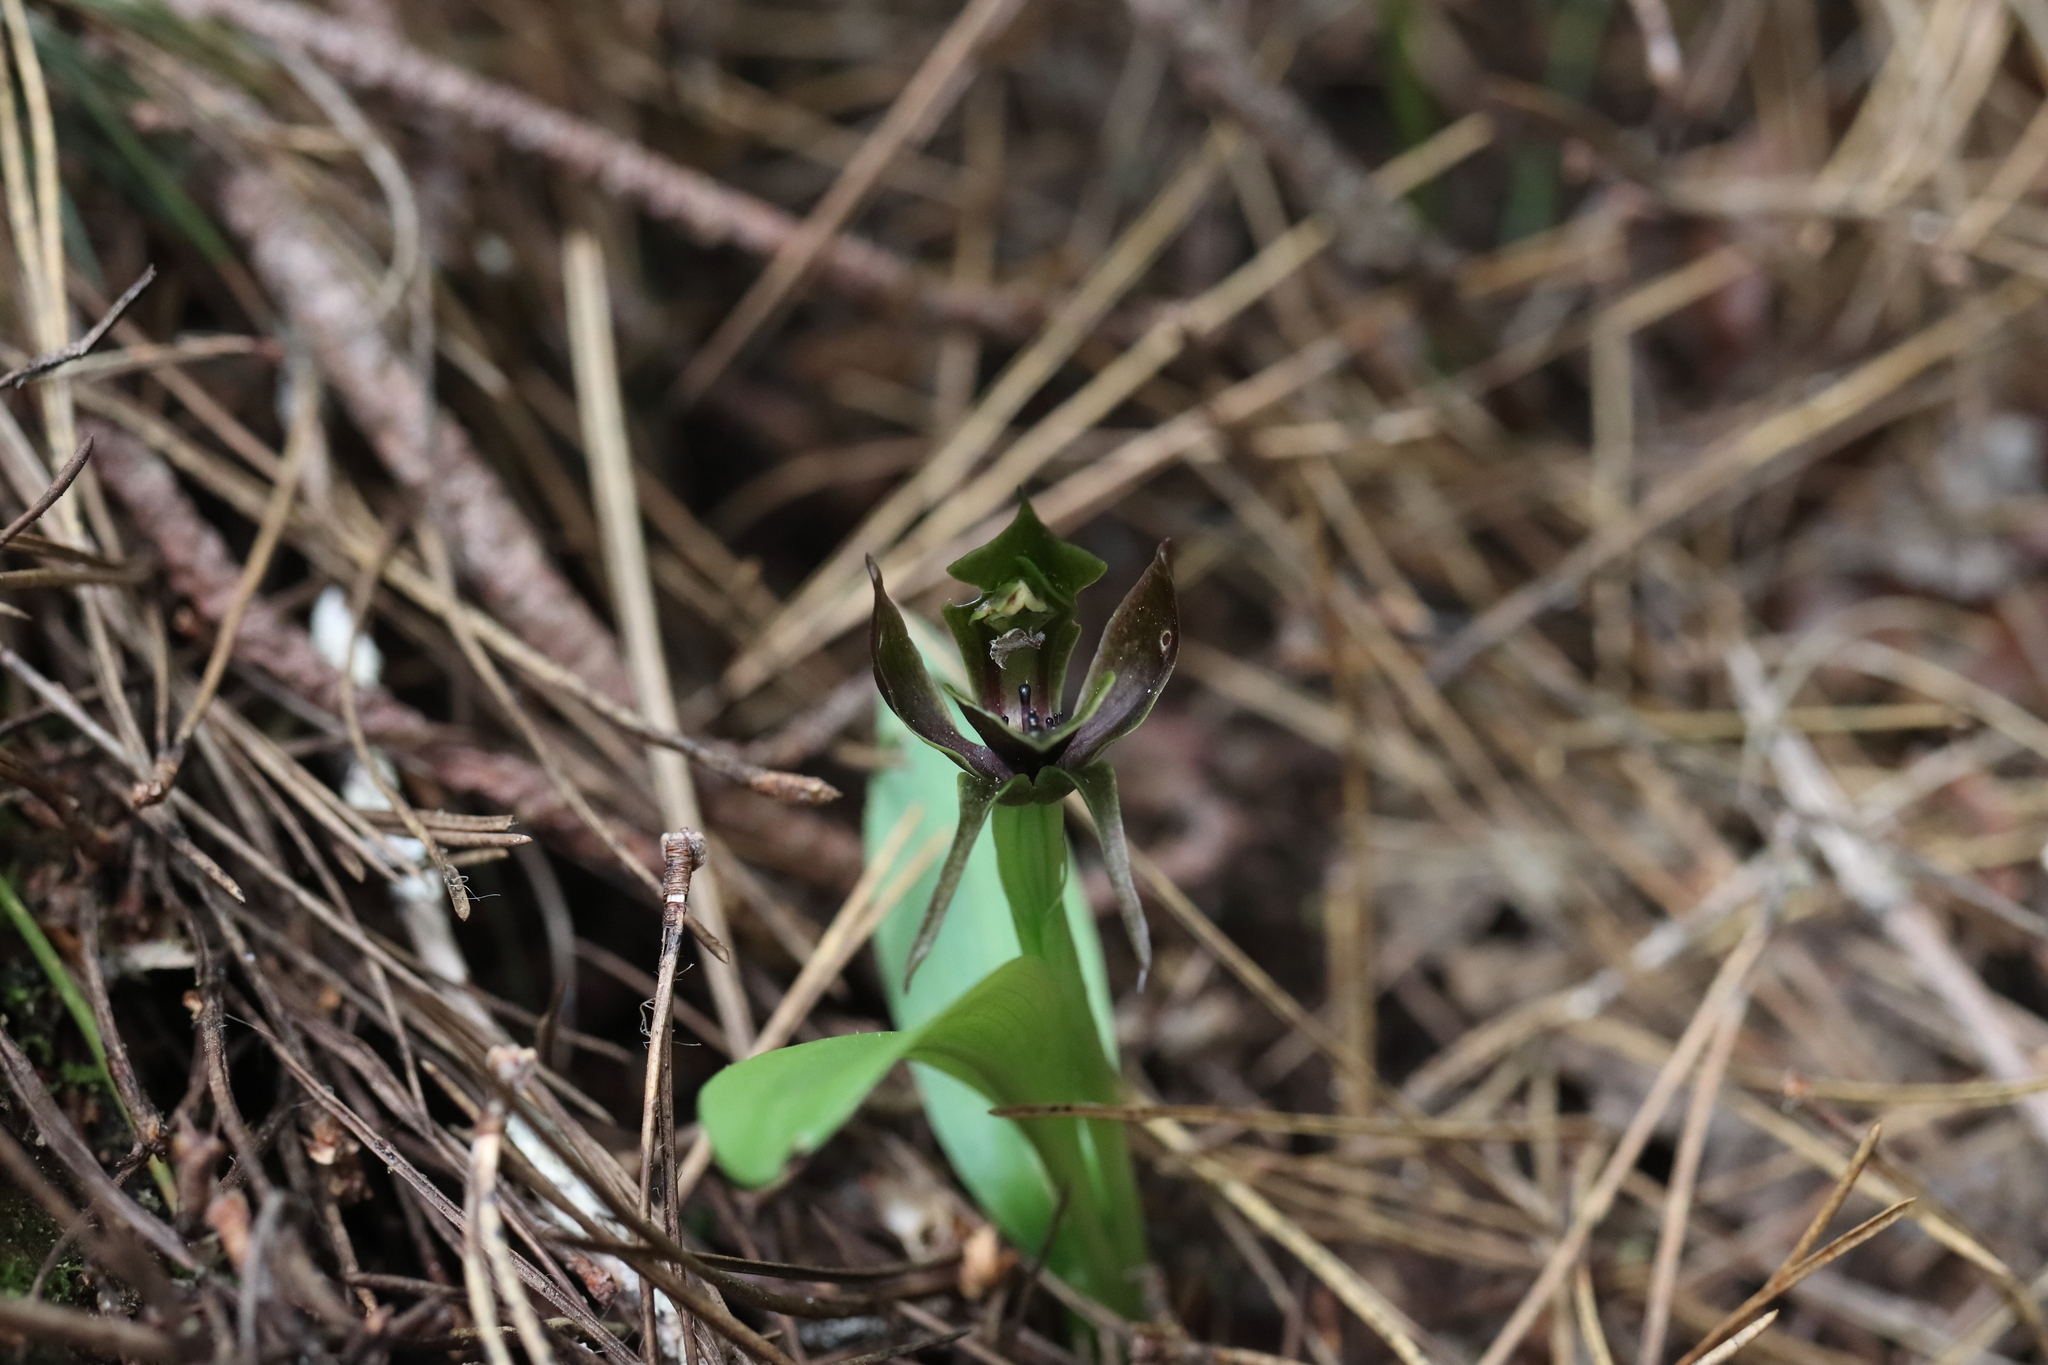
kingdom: Plantae
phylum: Tracheophyta
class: Liliopsida
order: Asparagales
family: Orchidaceae
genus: Chiloglottis
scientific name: Chiloglottis valida
